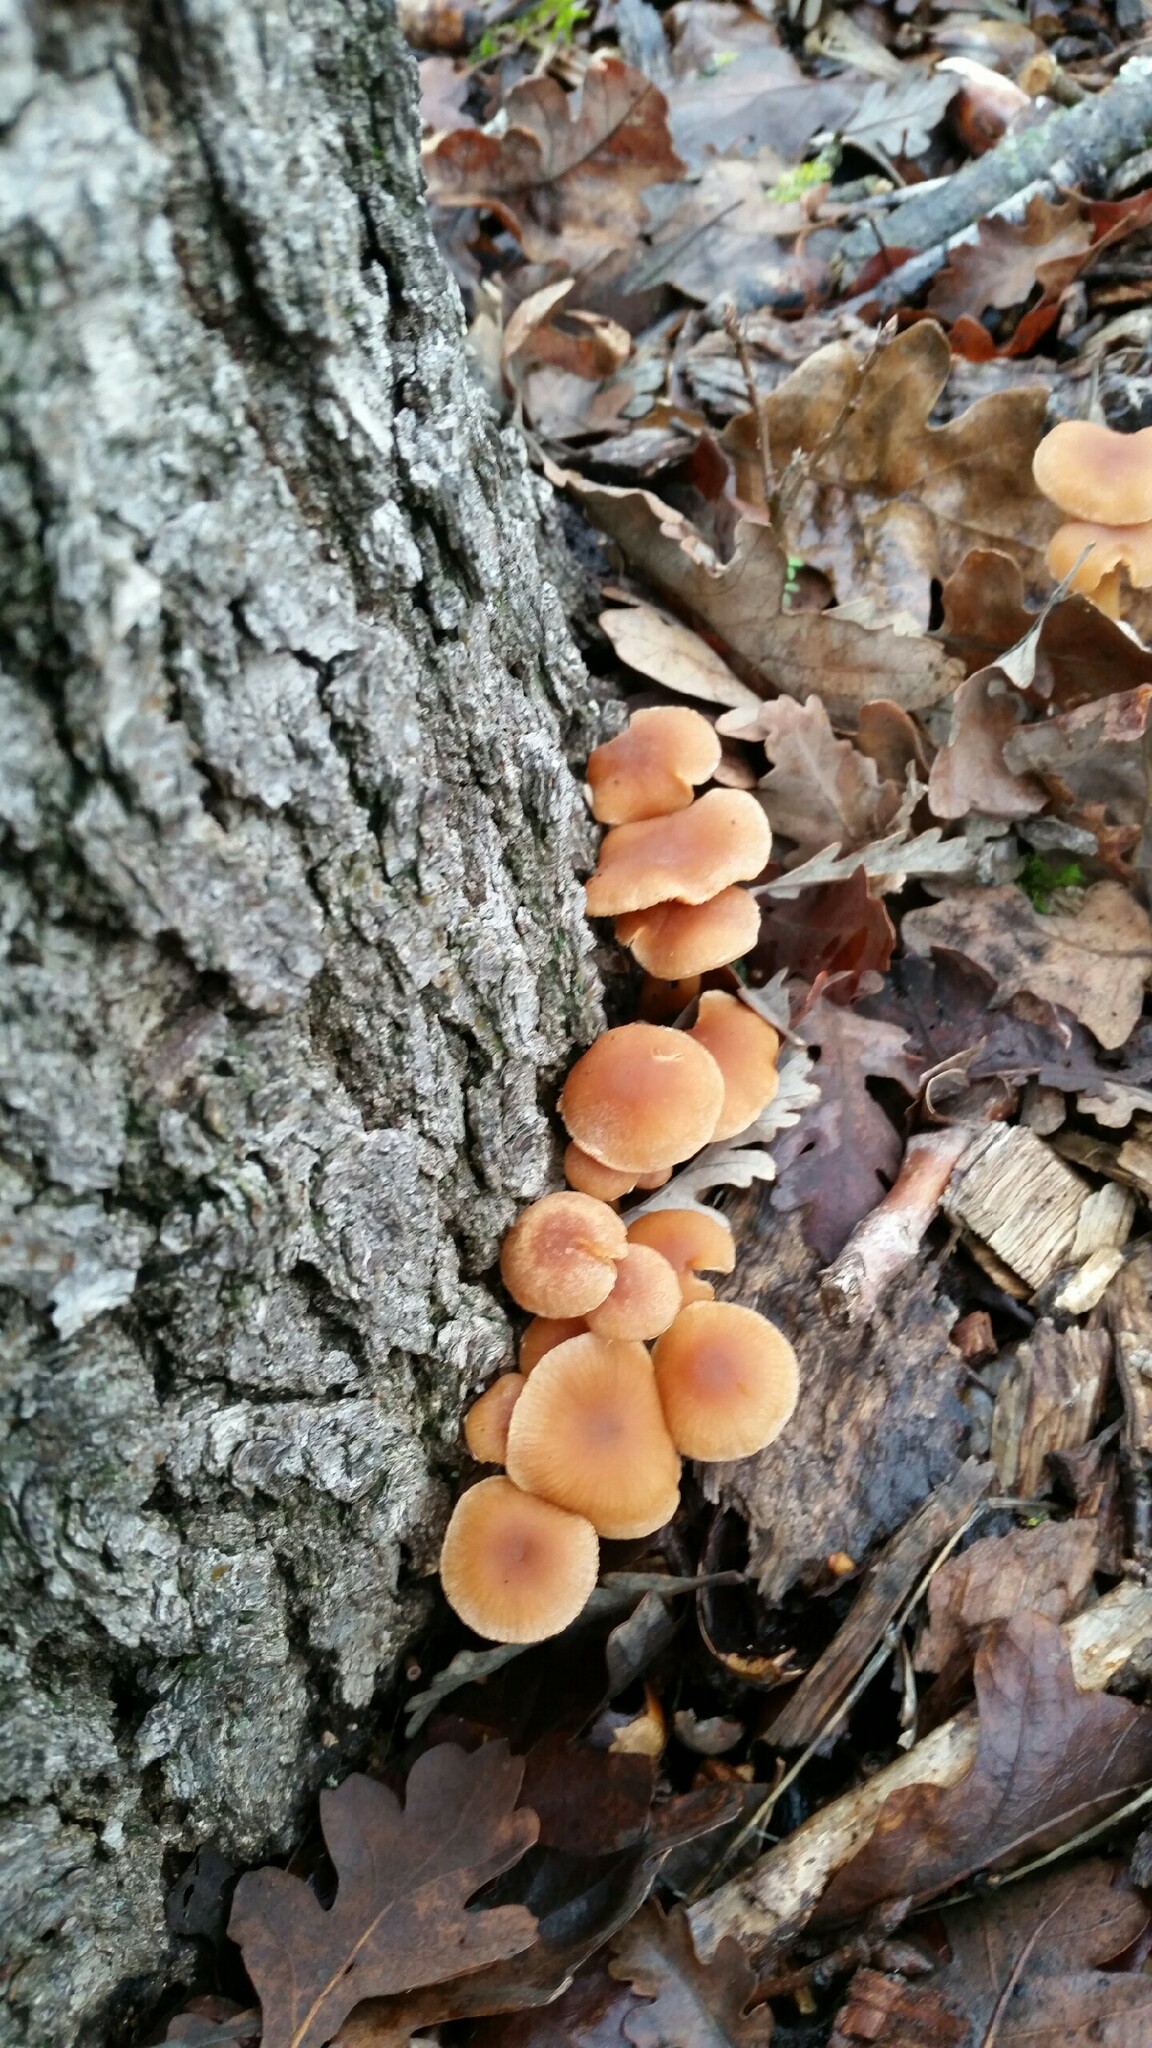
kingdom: Fungi
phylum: Basidiomycota
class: Agaricomycetes
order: Agaricales
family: Tubariaceae
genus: Tubaria
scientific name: Tubaria furfuracea
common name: Scurfy twiglet
